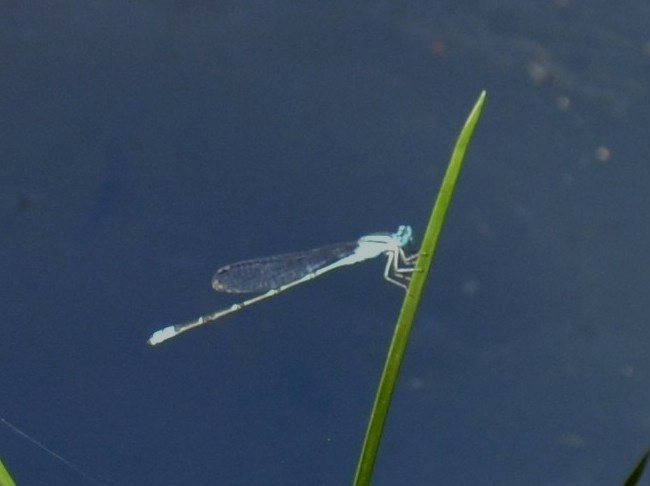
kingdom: Animalia
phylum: Arthropoda
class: Insecta
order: Odonata
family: Coenagrionidae
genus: Pseudagrion
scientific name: Pseudagrion microcephalum
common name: Blue riverdamsel
